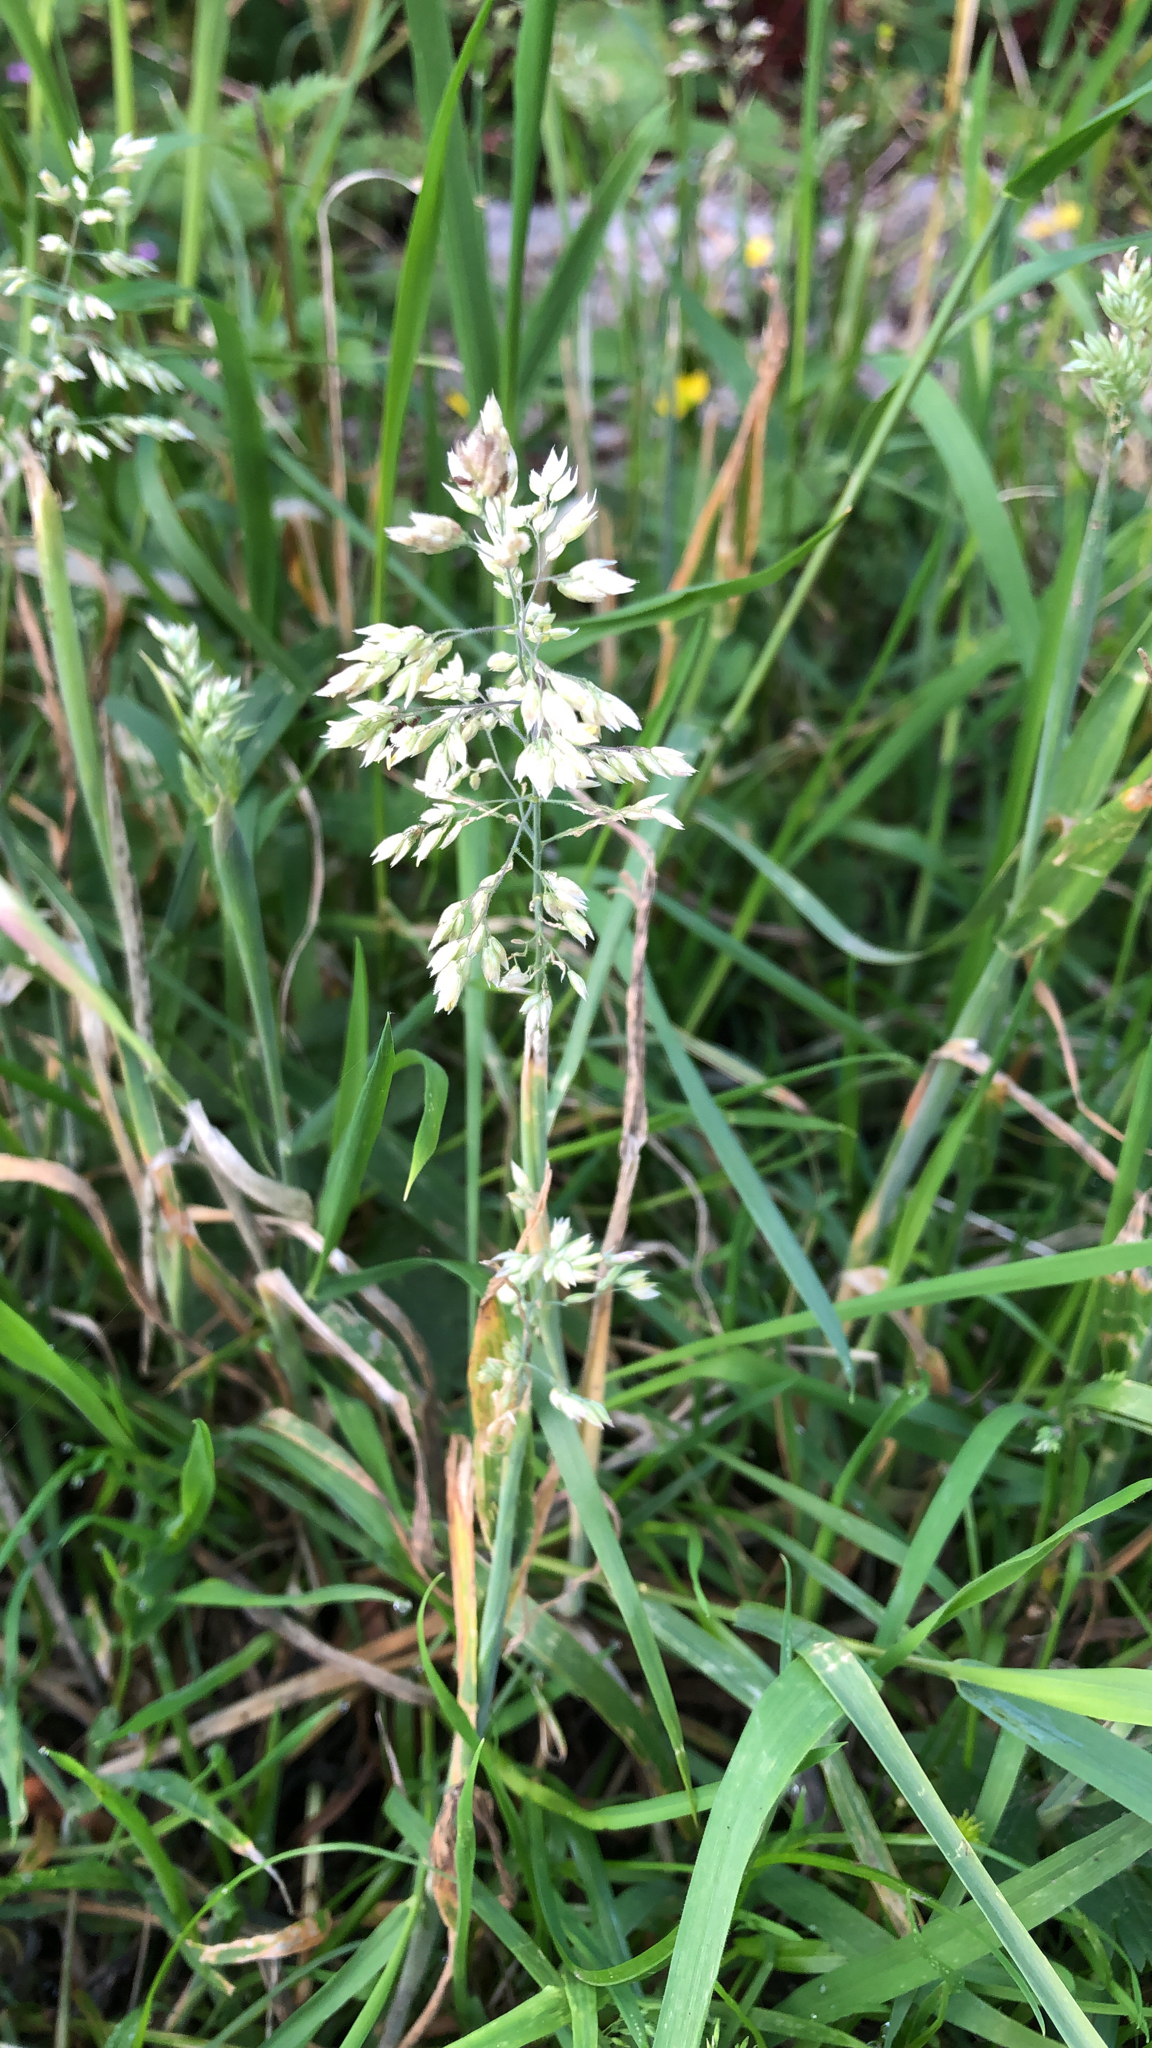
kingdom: Plantae
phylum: Tracheophyta
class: Liliopsida
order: Poales
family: Poaceae
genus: Holcus
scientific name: Holcus lanatus
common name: Yorkshire-fog
